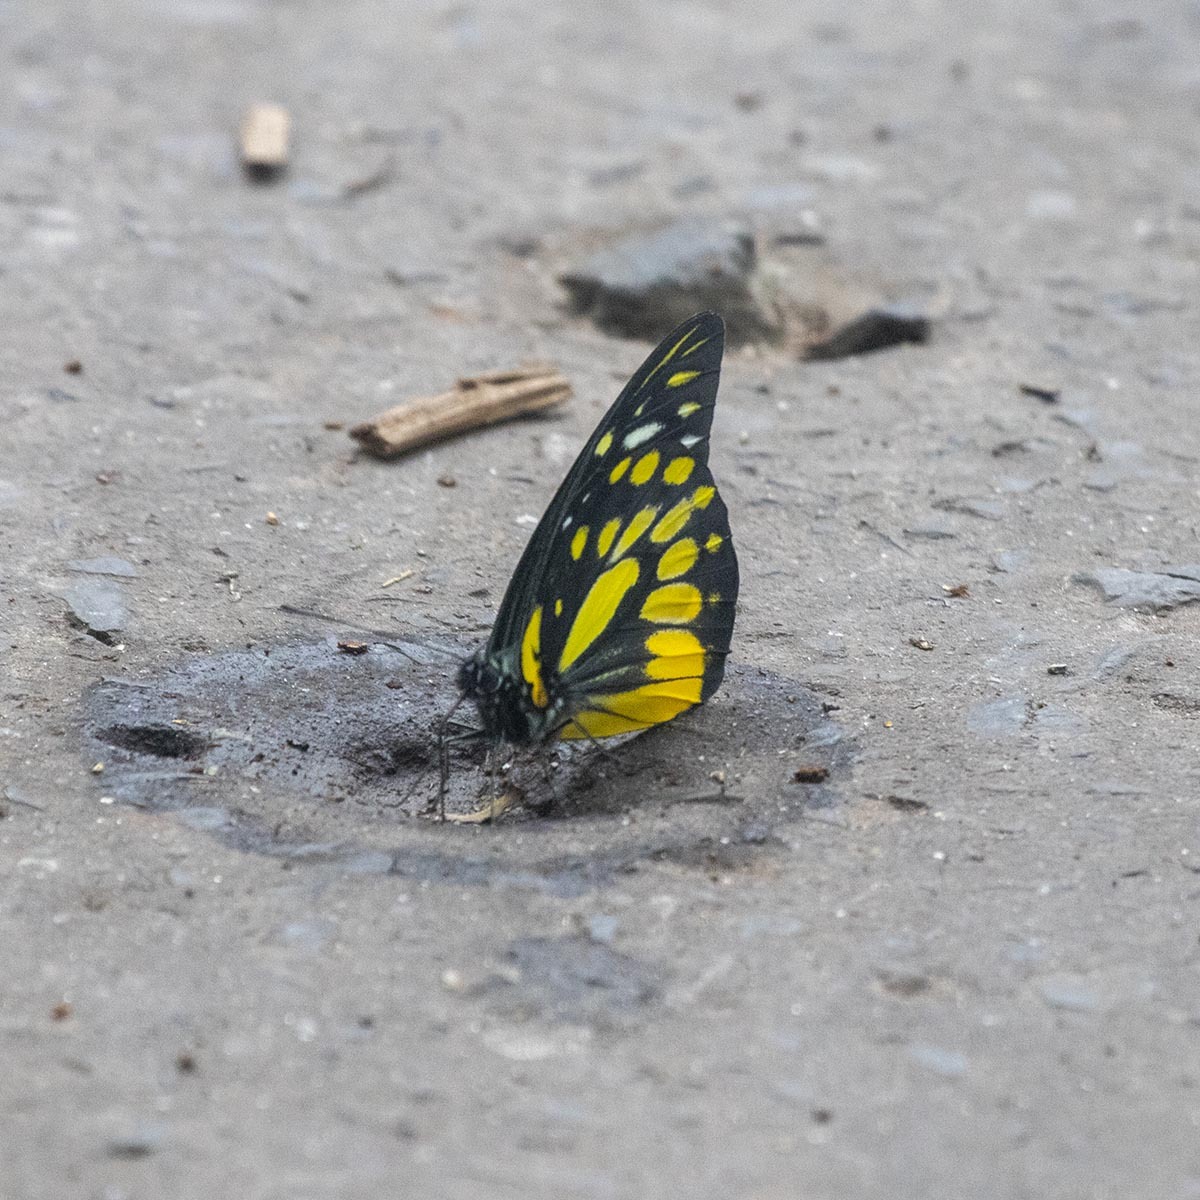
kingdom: Animalia
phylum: Arthropoda
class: Insecta
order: Lepidoptera
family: Pieridae
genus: Prioneris
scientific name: Prioneris thestylis
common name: Spotted sawtooth
